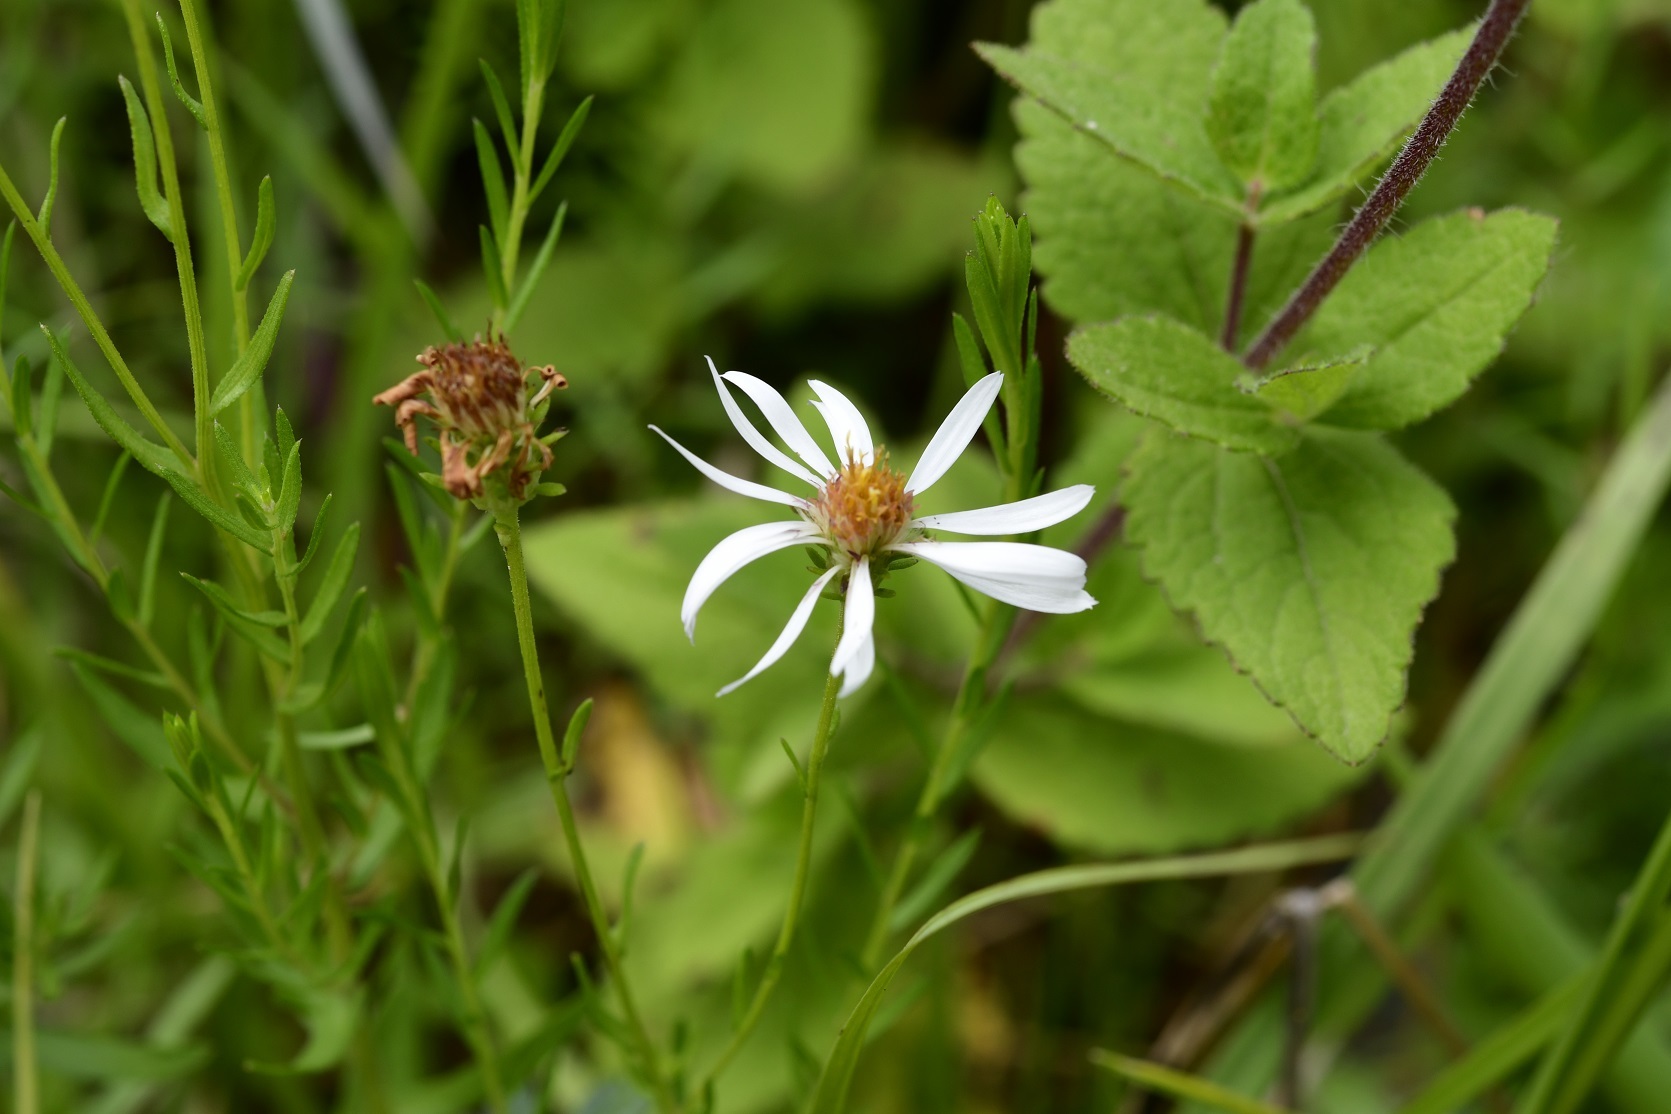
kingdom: Plantae
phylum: Tracheophyta
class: Magnoliopsida
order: Asterales
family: Asteraceae
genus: Symphyotrichum
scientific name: Symphyotrichum trilineatum
